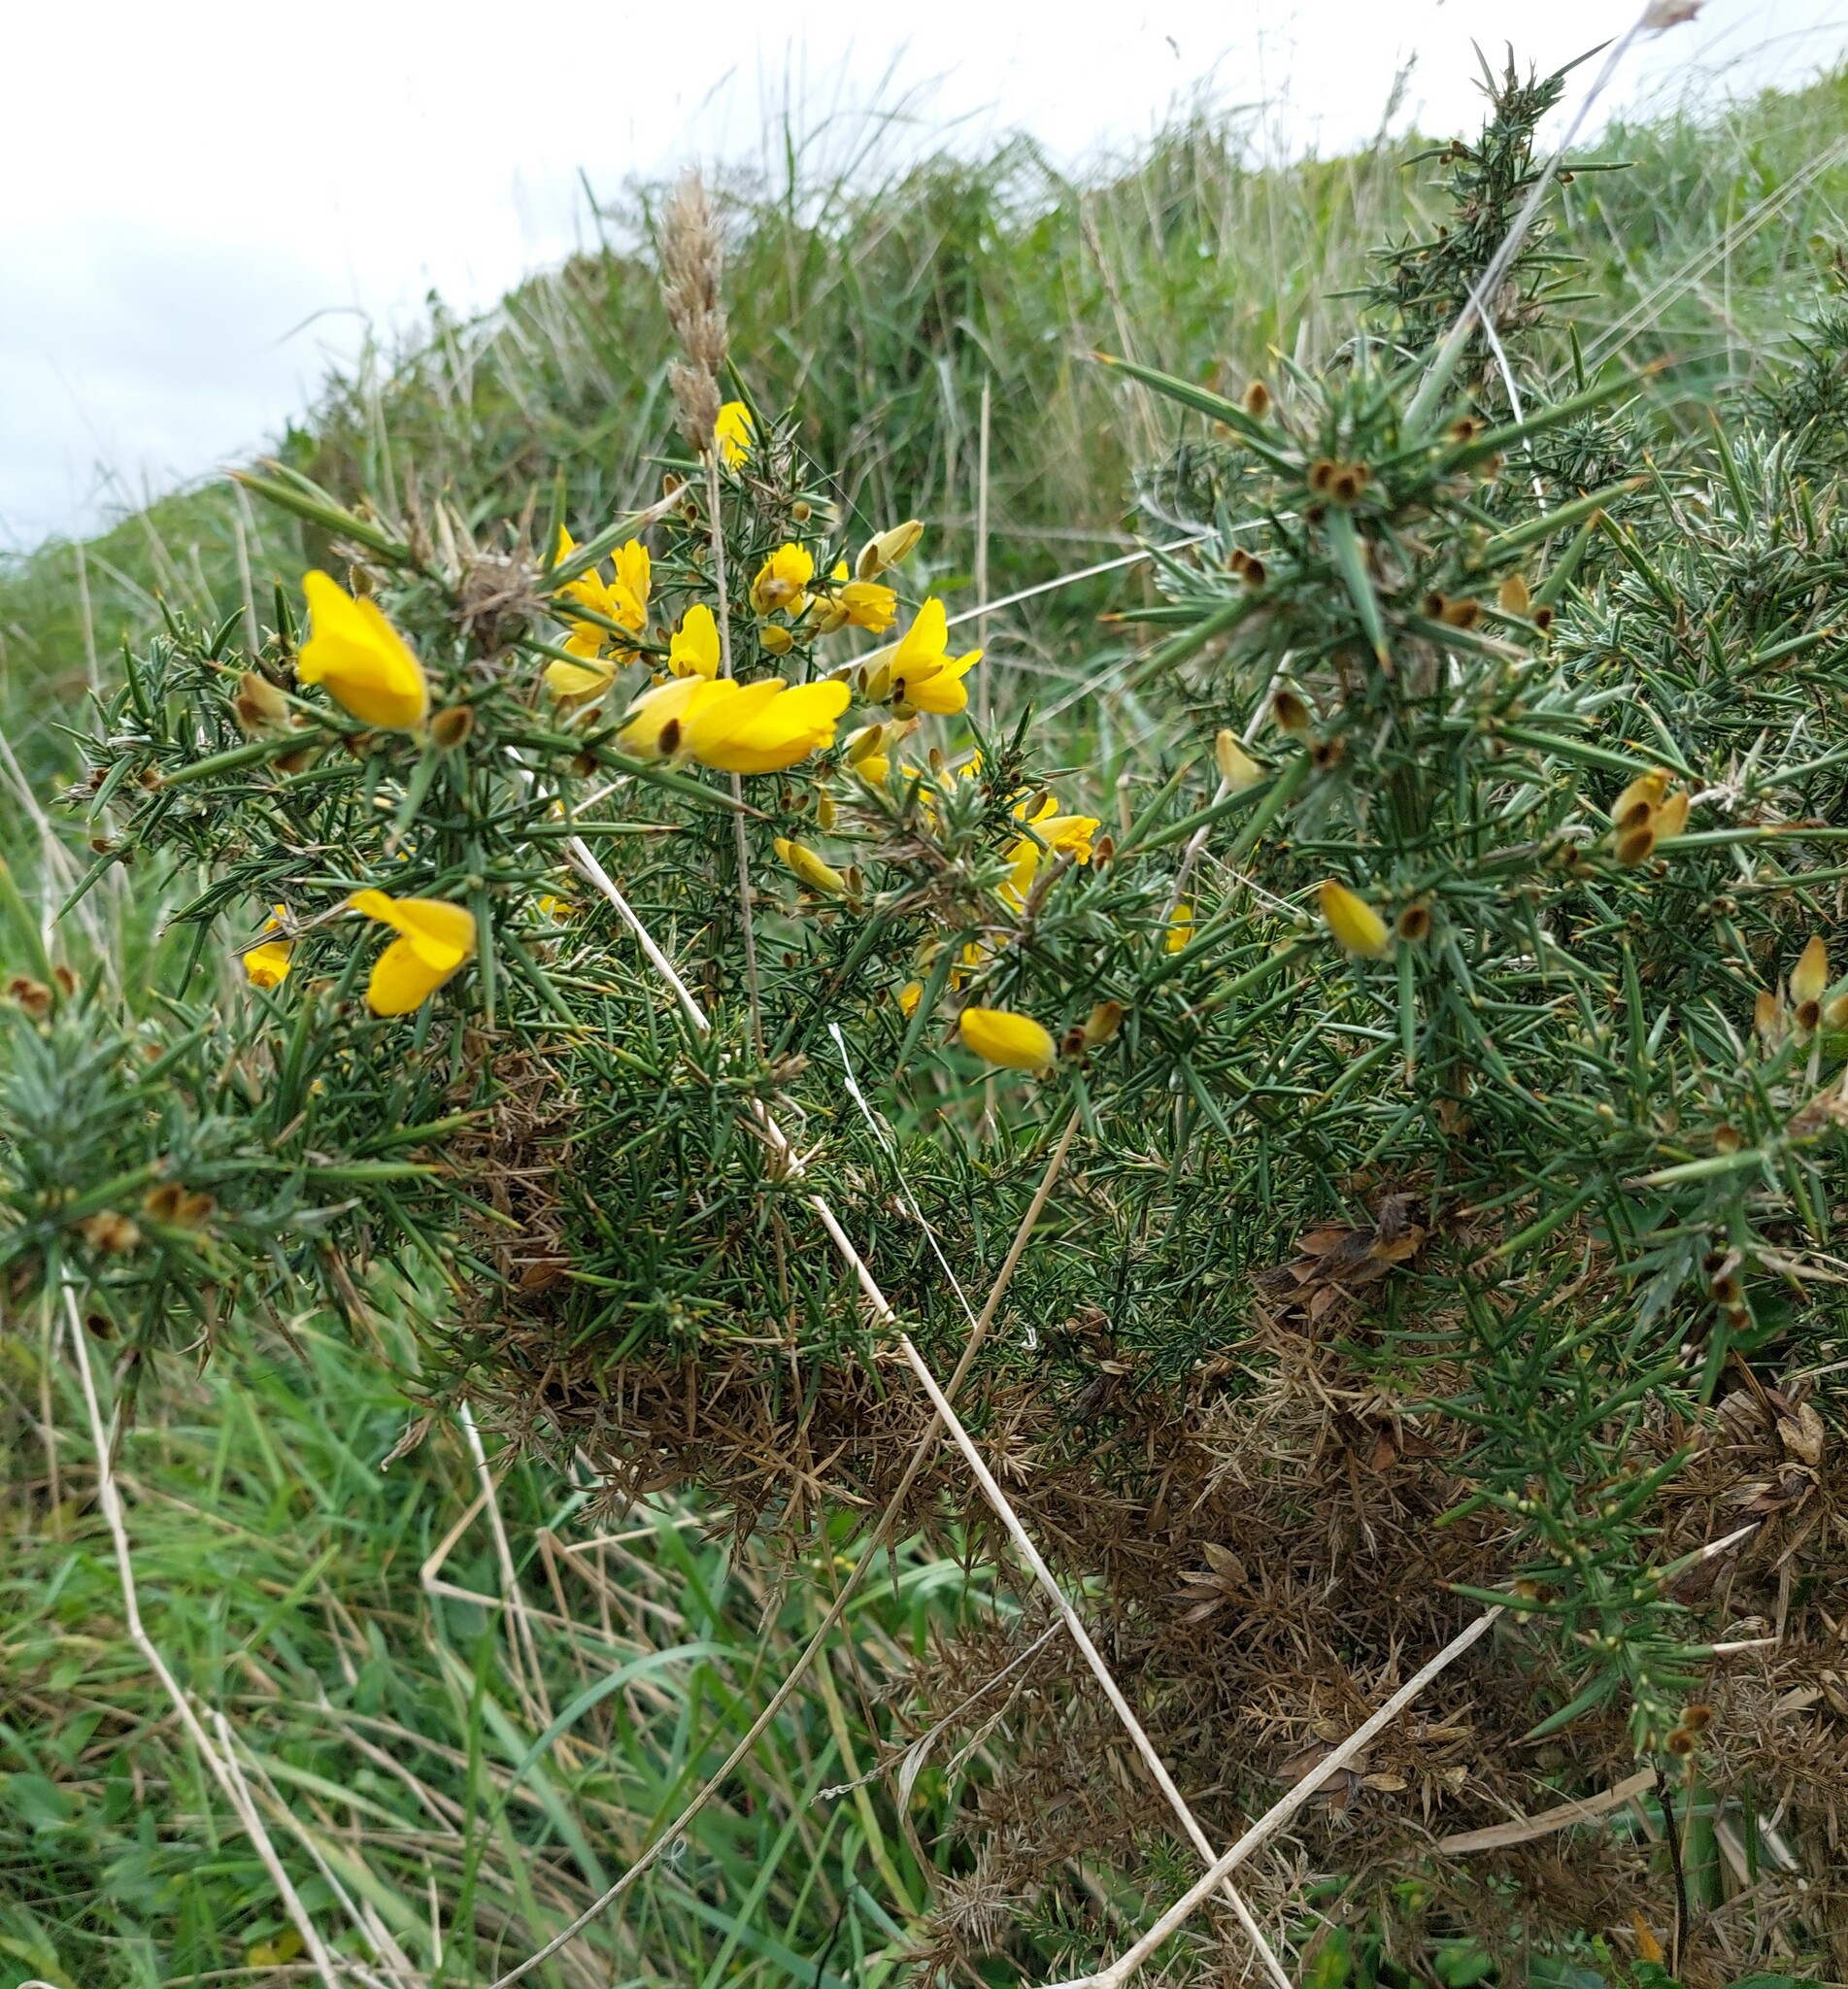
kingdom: Plantae
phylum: Tracheophyta
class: Magnoliopsida
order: Fabales
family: Fabaceae
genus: Ulex
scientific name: Ulex europaeus
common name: Common gorse
